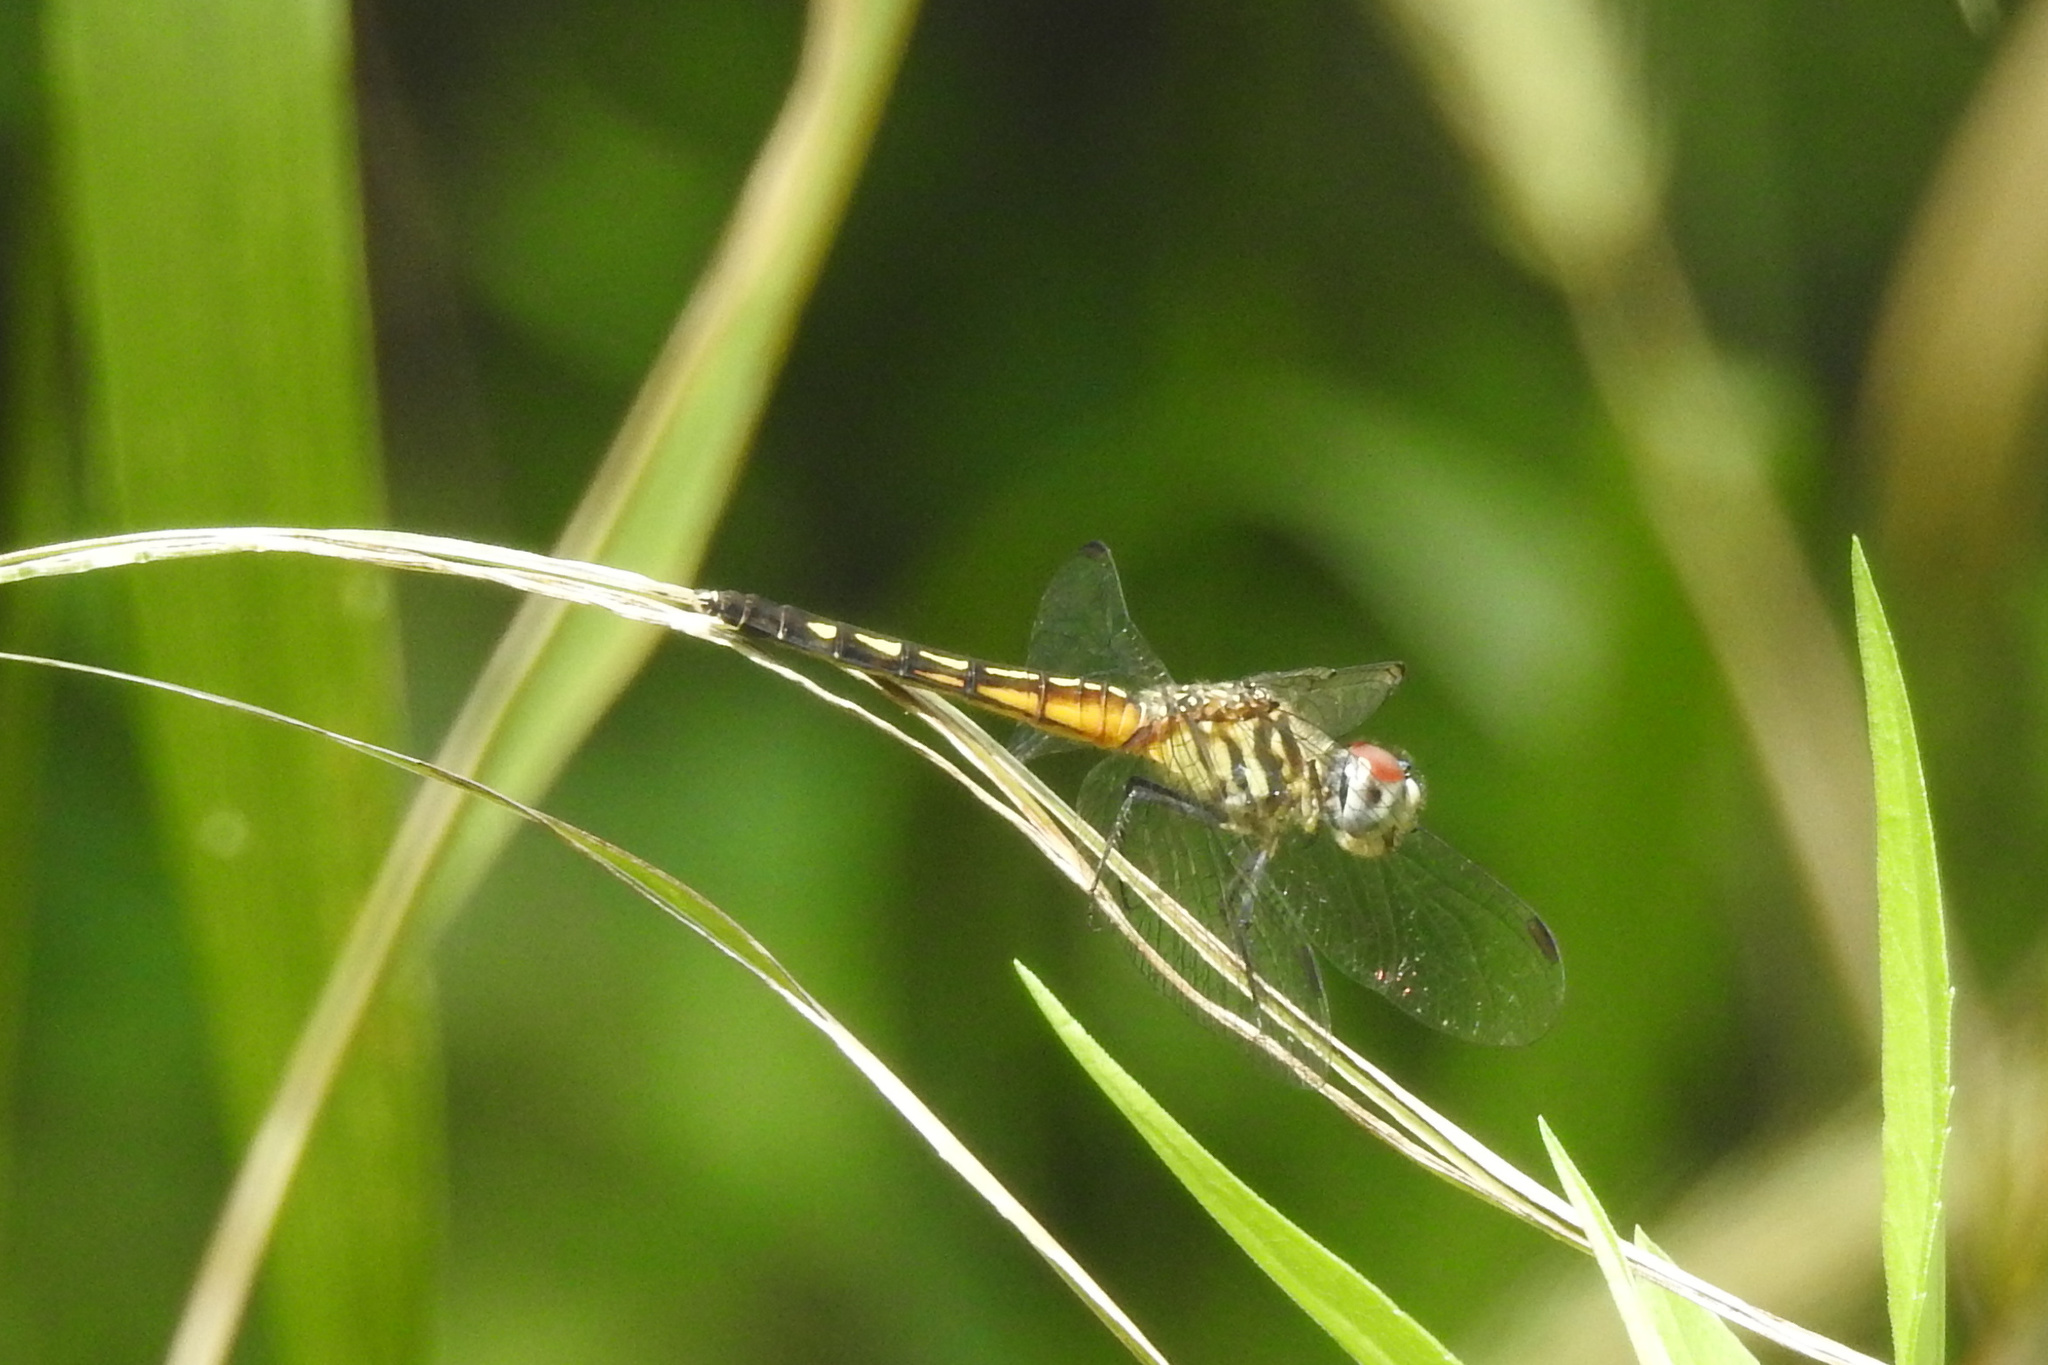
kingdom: Animalia
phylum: Arthropoda
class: Insecta
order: Odonata
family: Libellulidae
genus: Pachydiplax
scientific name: Pachydiplax longipennis
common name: Blue dasher
